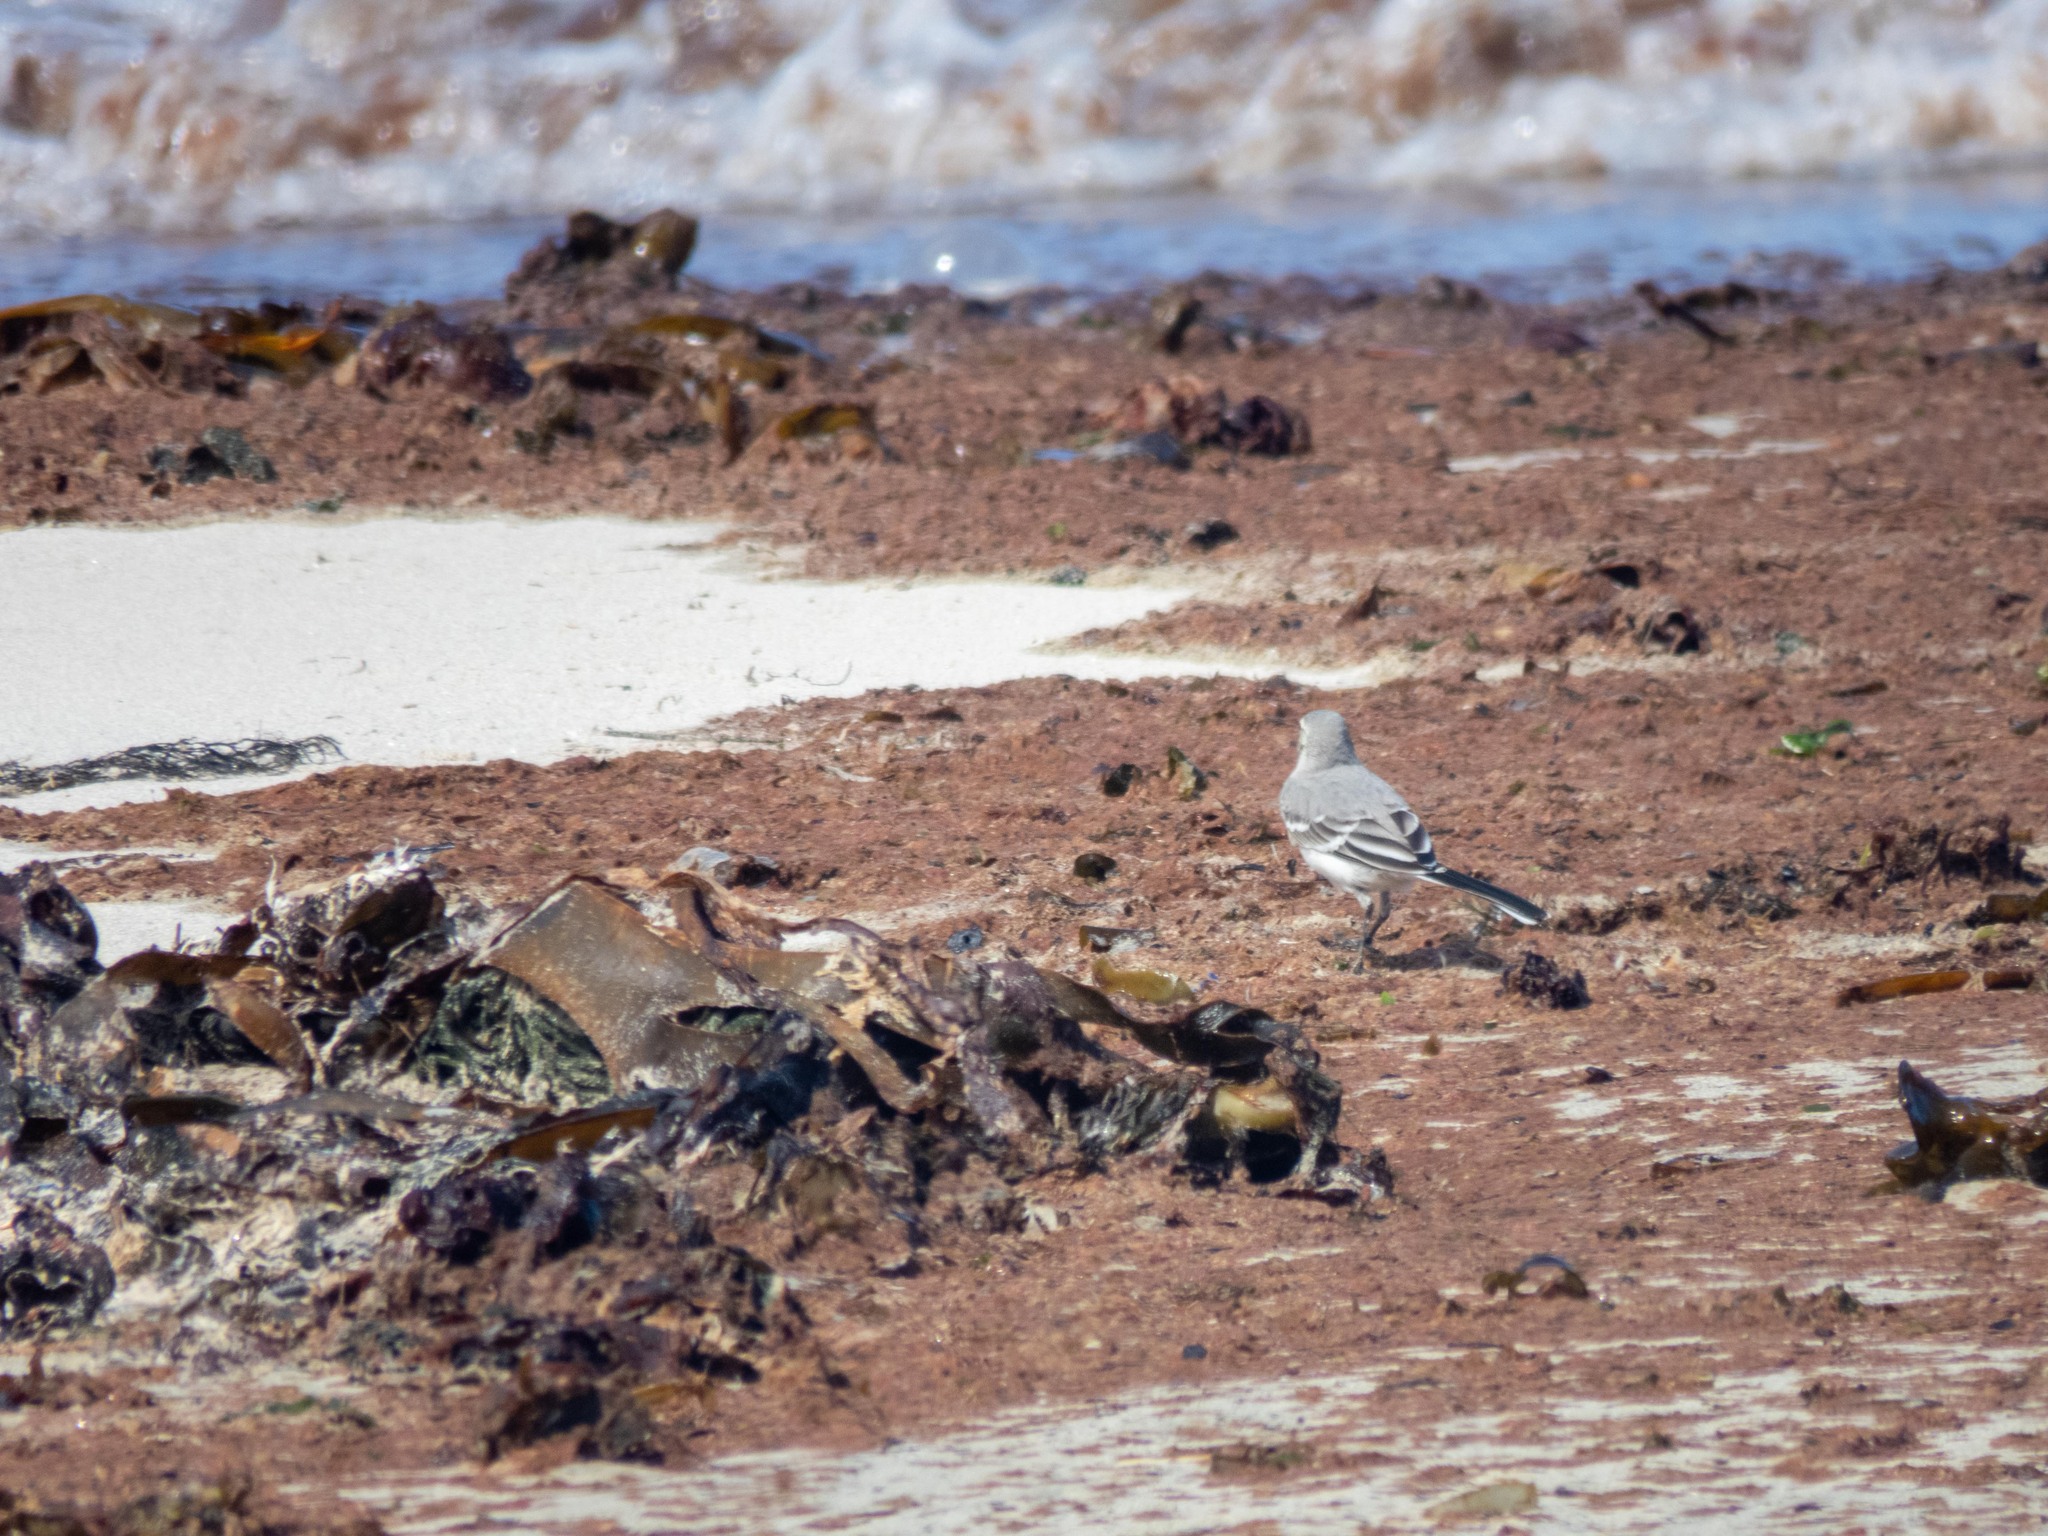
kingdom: Animalia
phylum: Chordata
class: Aves
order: Passeriformes
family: Motacillidae
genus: Motacilla
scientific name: Motacilla alba
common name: White wagtail
